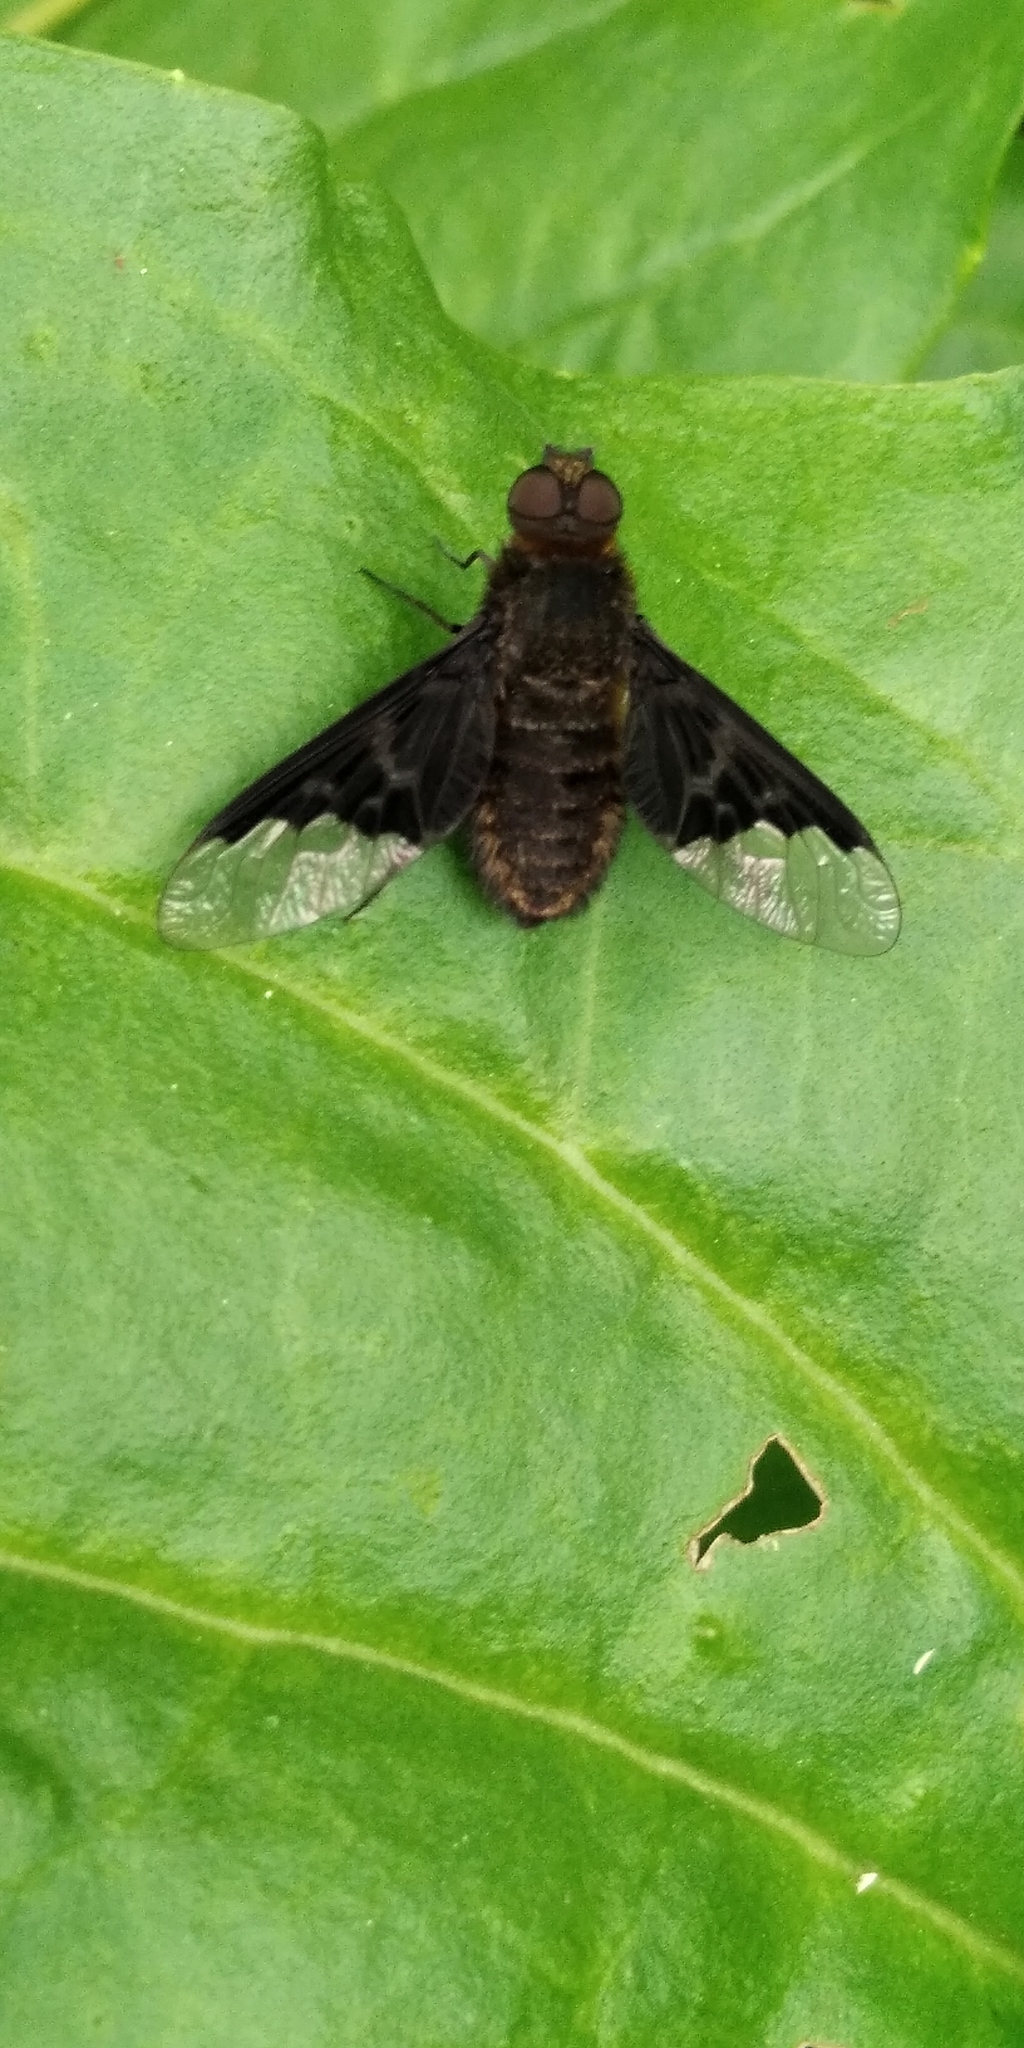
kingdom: Animalia
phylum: Arthropoda
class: Insecta
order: Diptera
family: Bombyliidae
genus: Hemipenthes
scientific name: Hemipenthes morio
